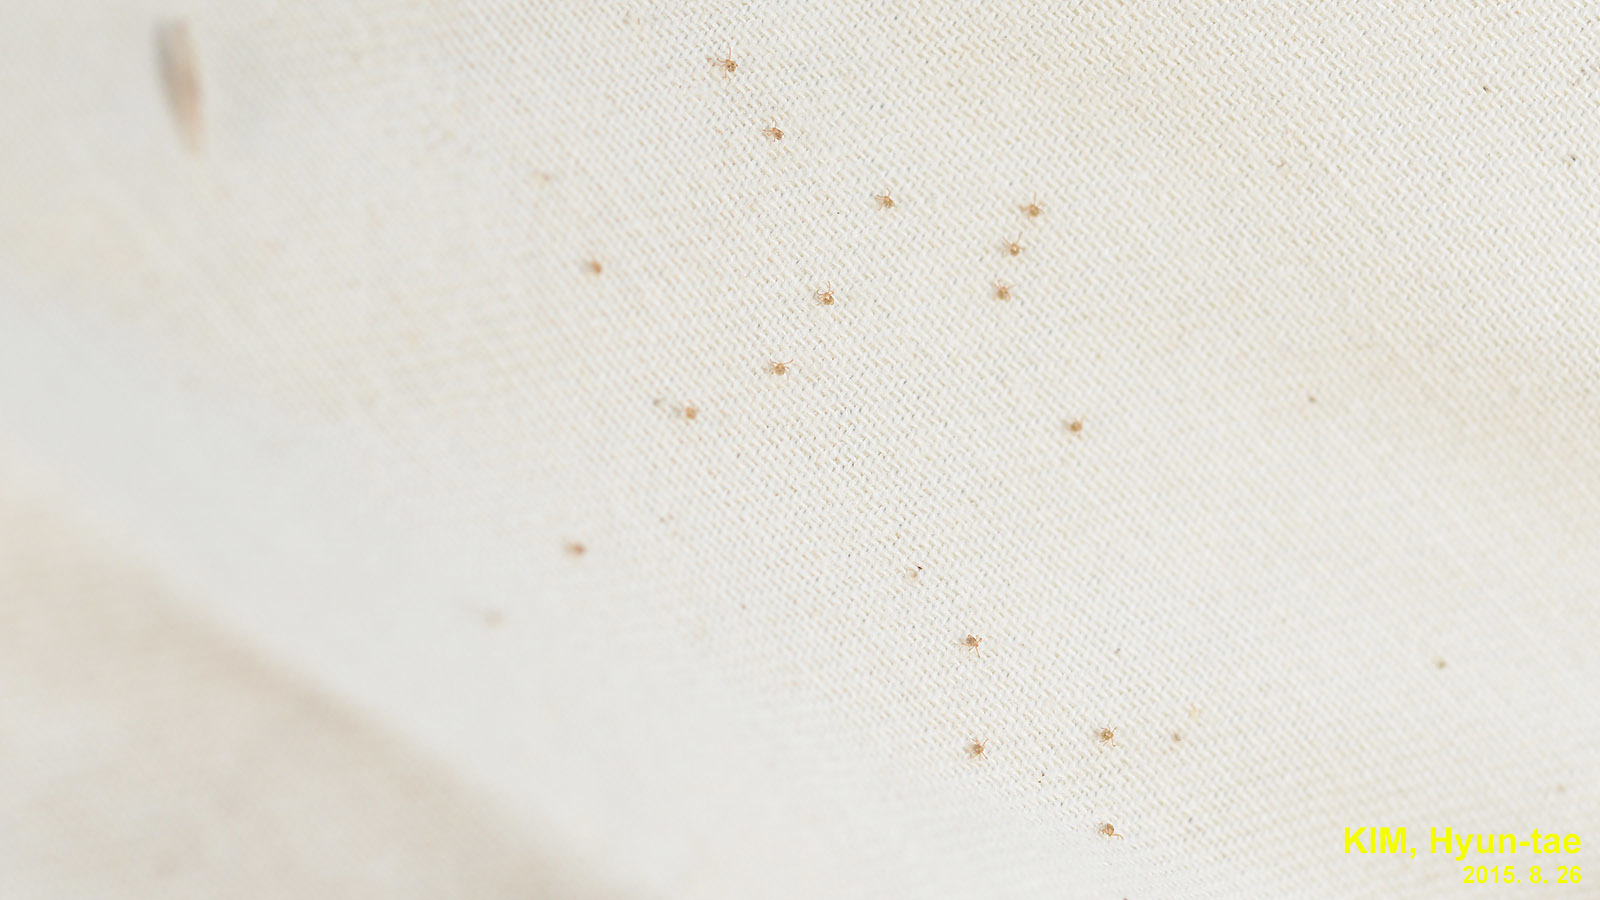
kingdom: Animalia
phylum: Arthropoda
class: Arachnida
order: Ixodida
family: Ixodidae
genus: Haemaphysalis
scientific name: Haemaphysalis longicornis
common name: Bush tick
